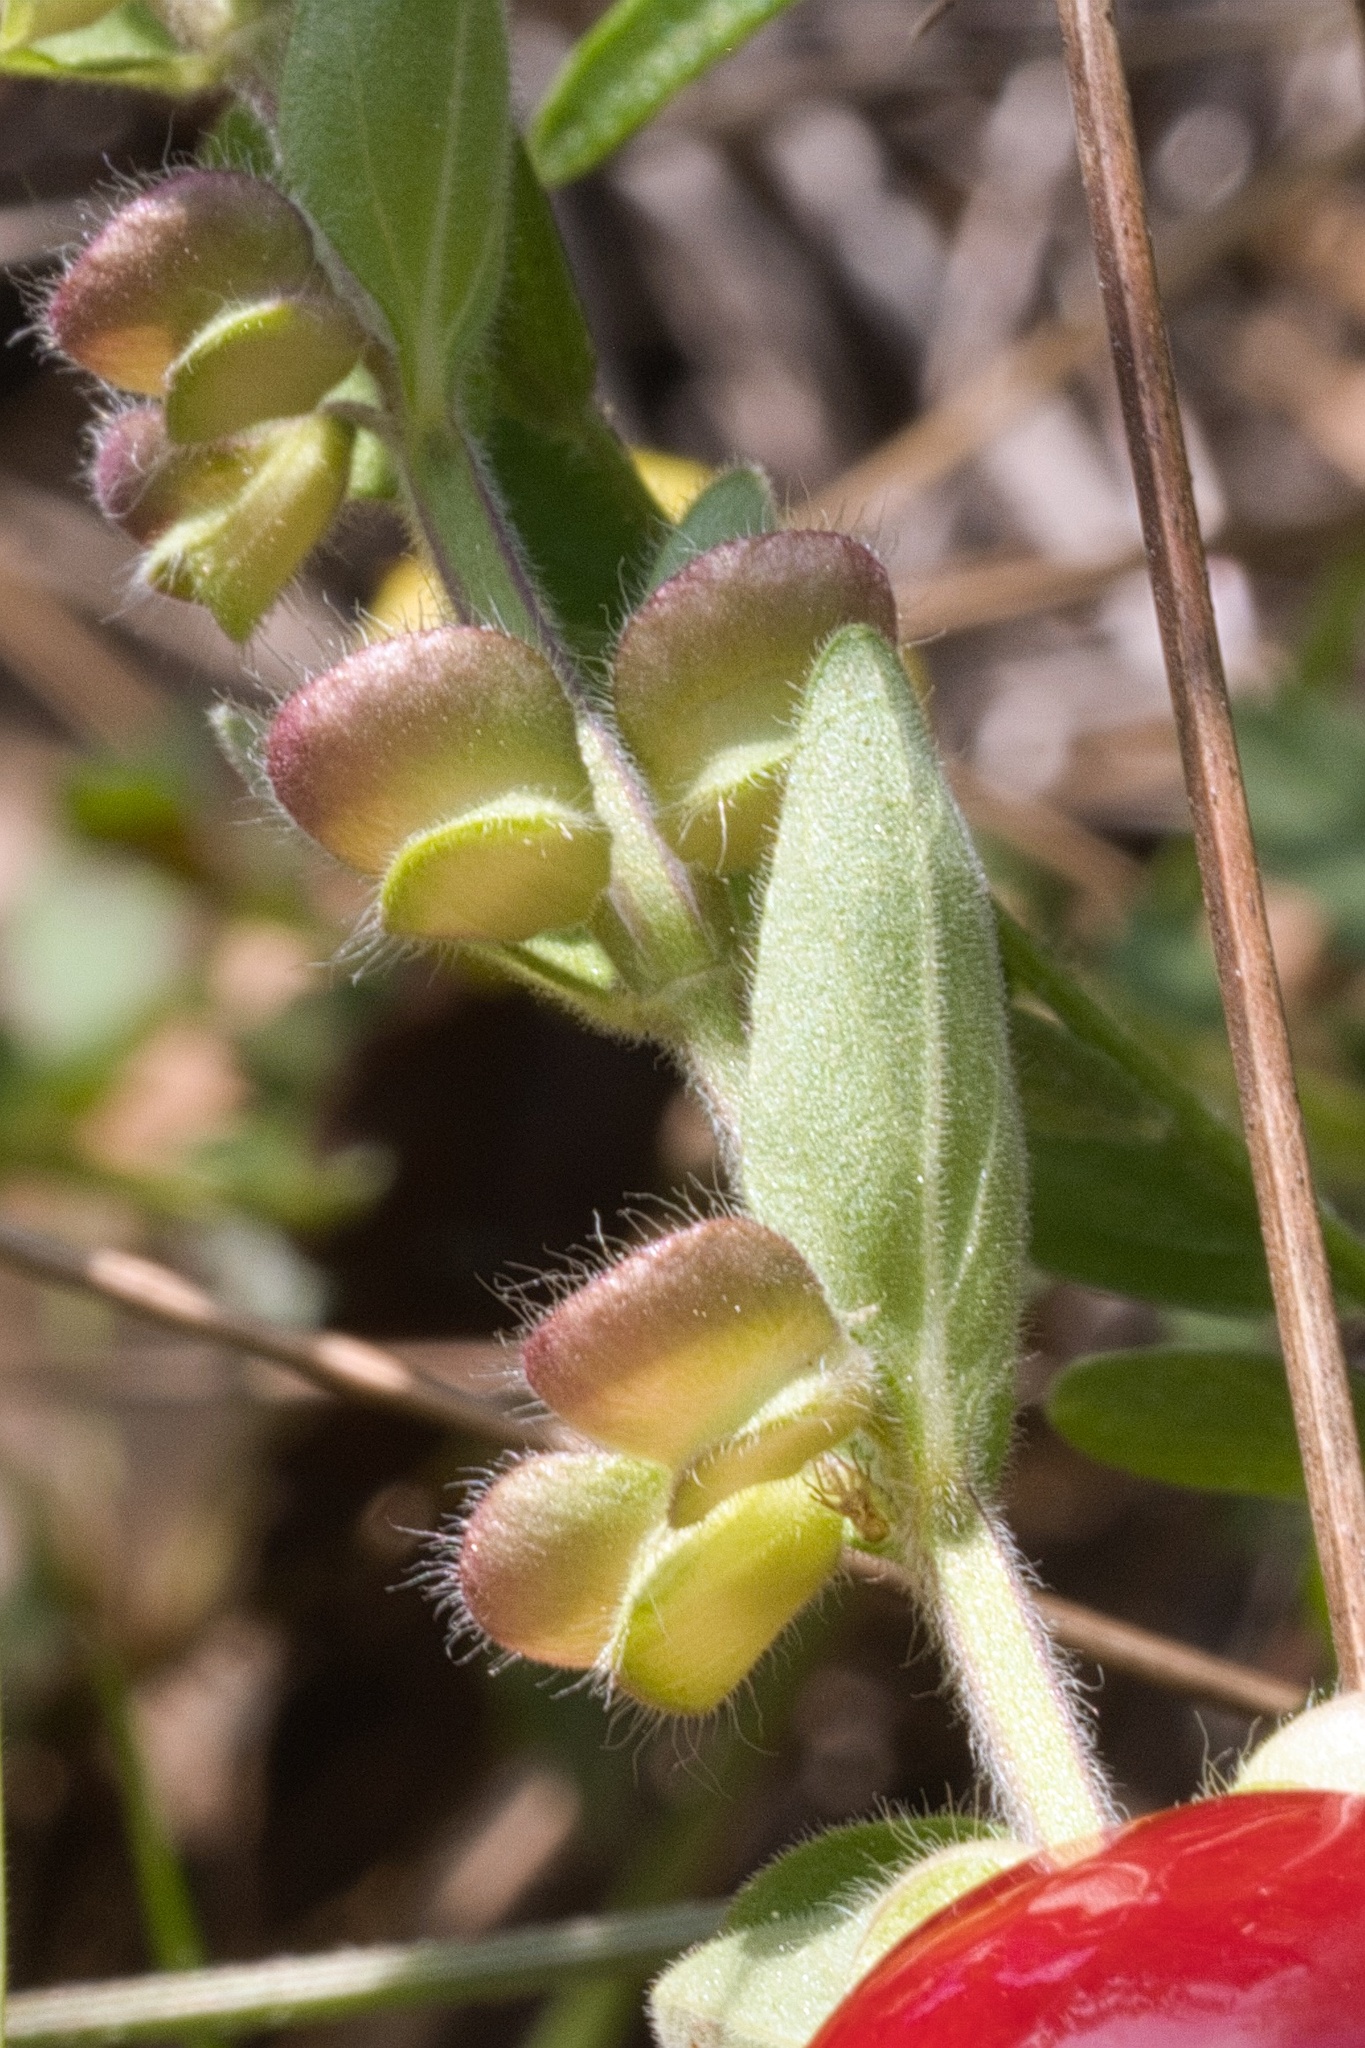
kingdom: Plantae
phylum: Tracheophyta
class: Magnoliopsida
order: Lamiales
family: Lamiaceae
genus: Scutellaria
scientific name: Scutellaria drummondii
